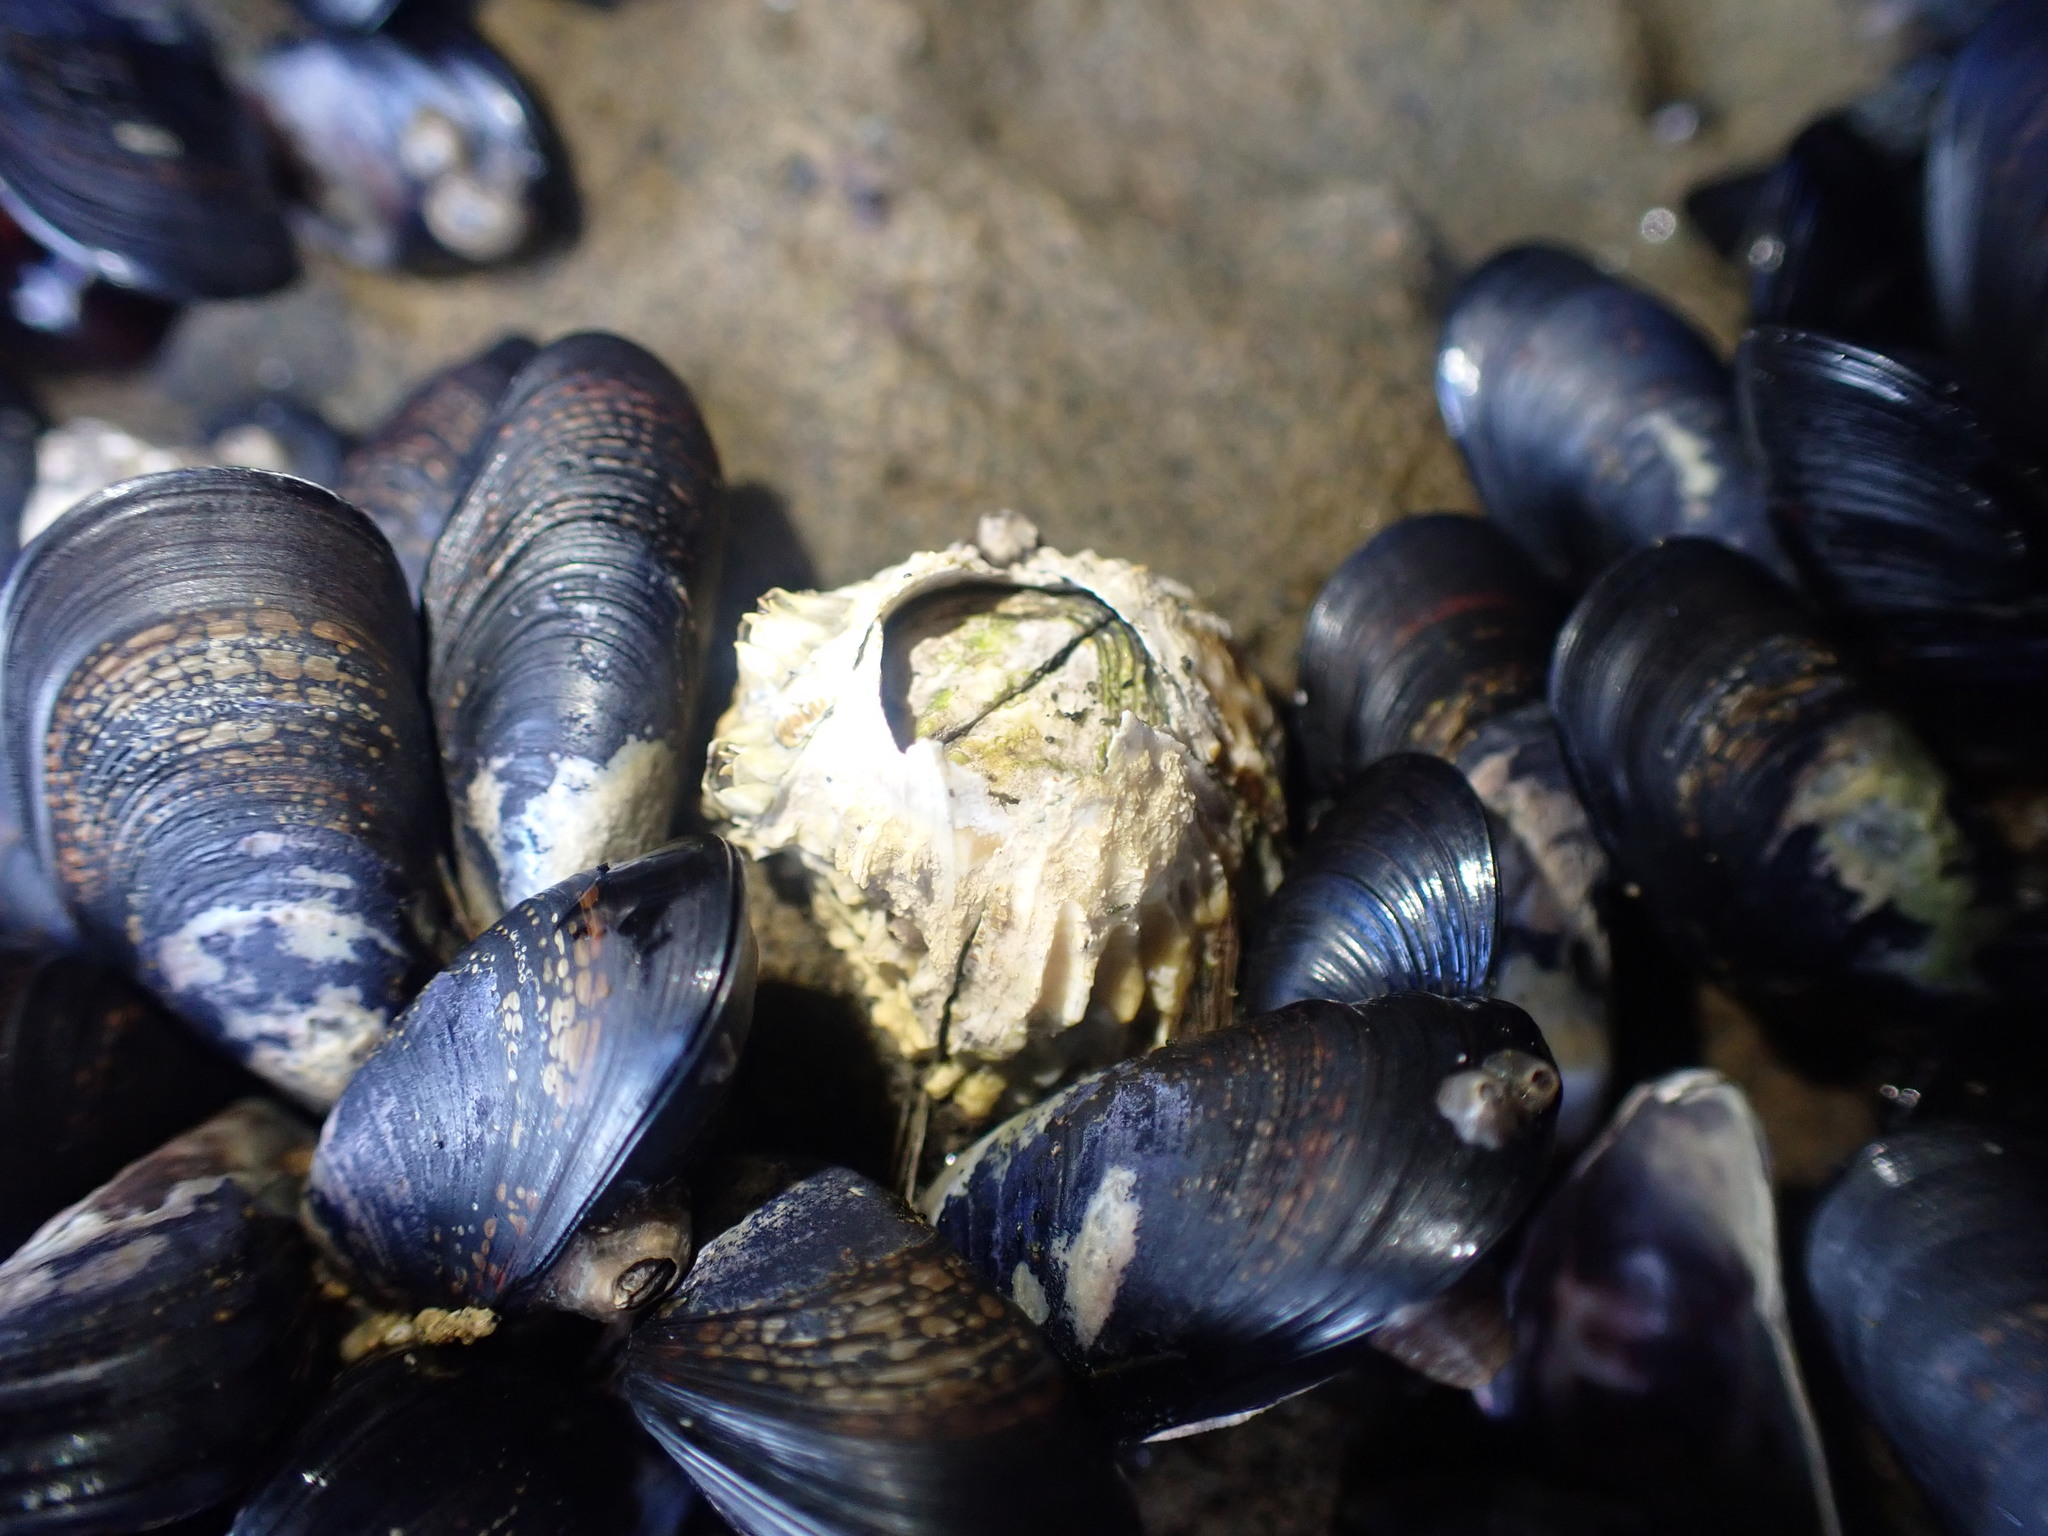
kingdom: Animalia
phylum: Arthropoda
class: Maxillopoda
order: Sessilia
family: Tetraclitidae
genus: Epopella
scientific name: Epopella plicata
